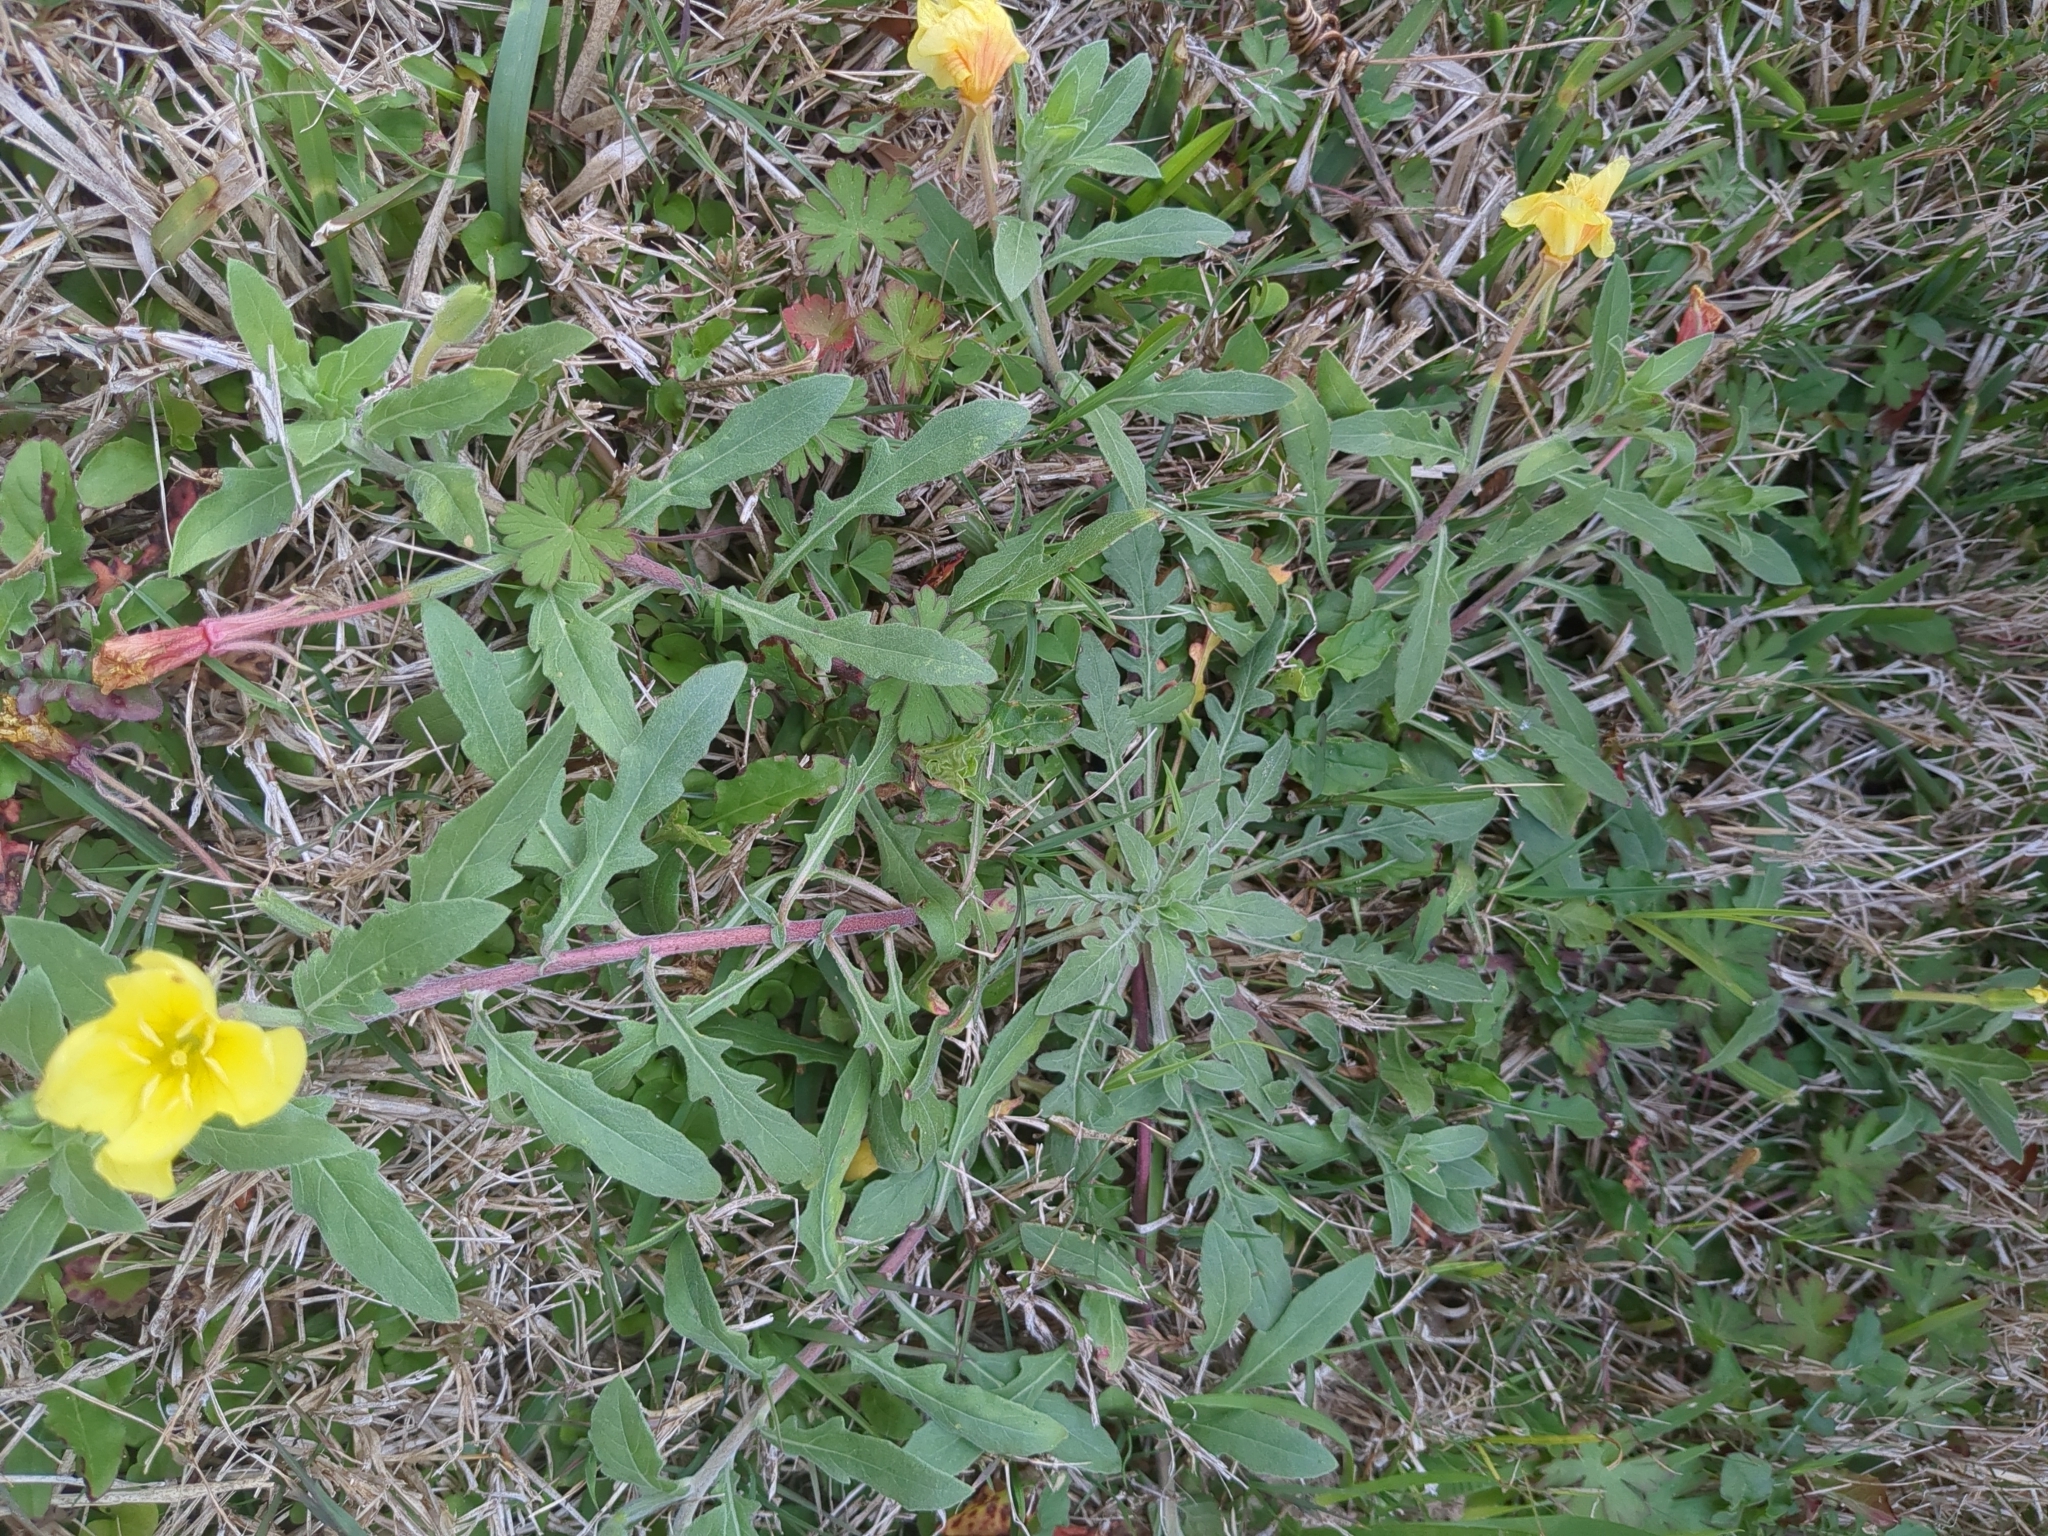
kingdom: Plantae
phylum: Tracheophyta
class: Magnoliopsida
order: Myrtales
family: Onagraceae
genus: Oenothera
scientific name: Oenothera laciniata
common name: Cut-leaved evening-primrose
